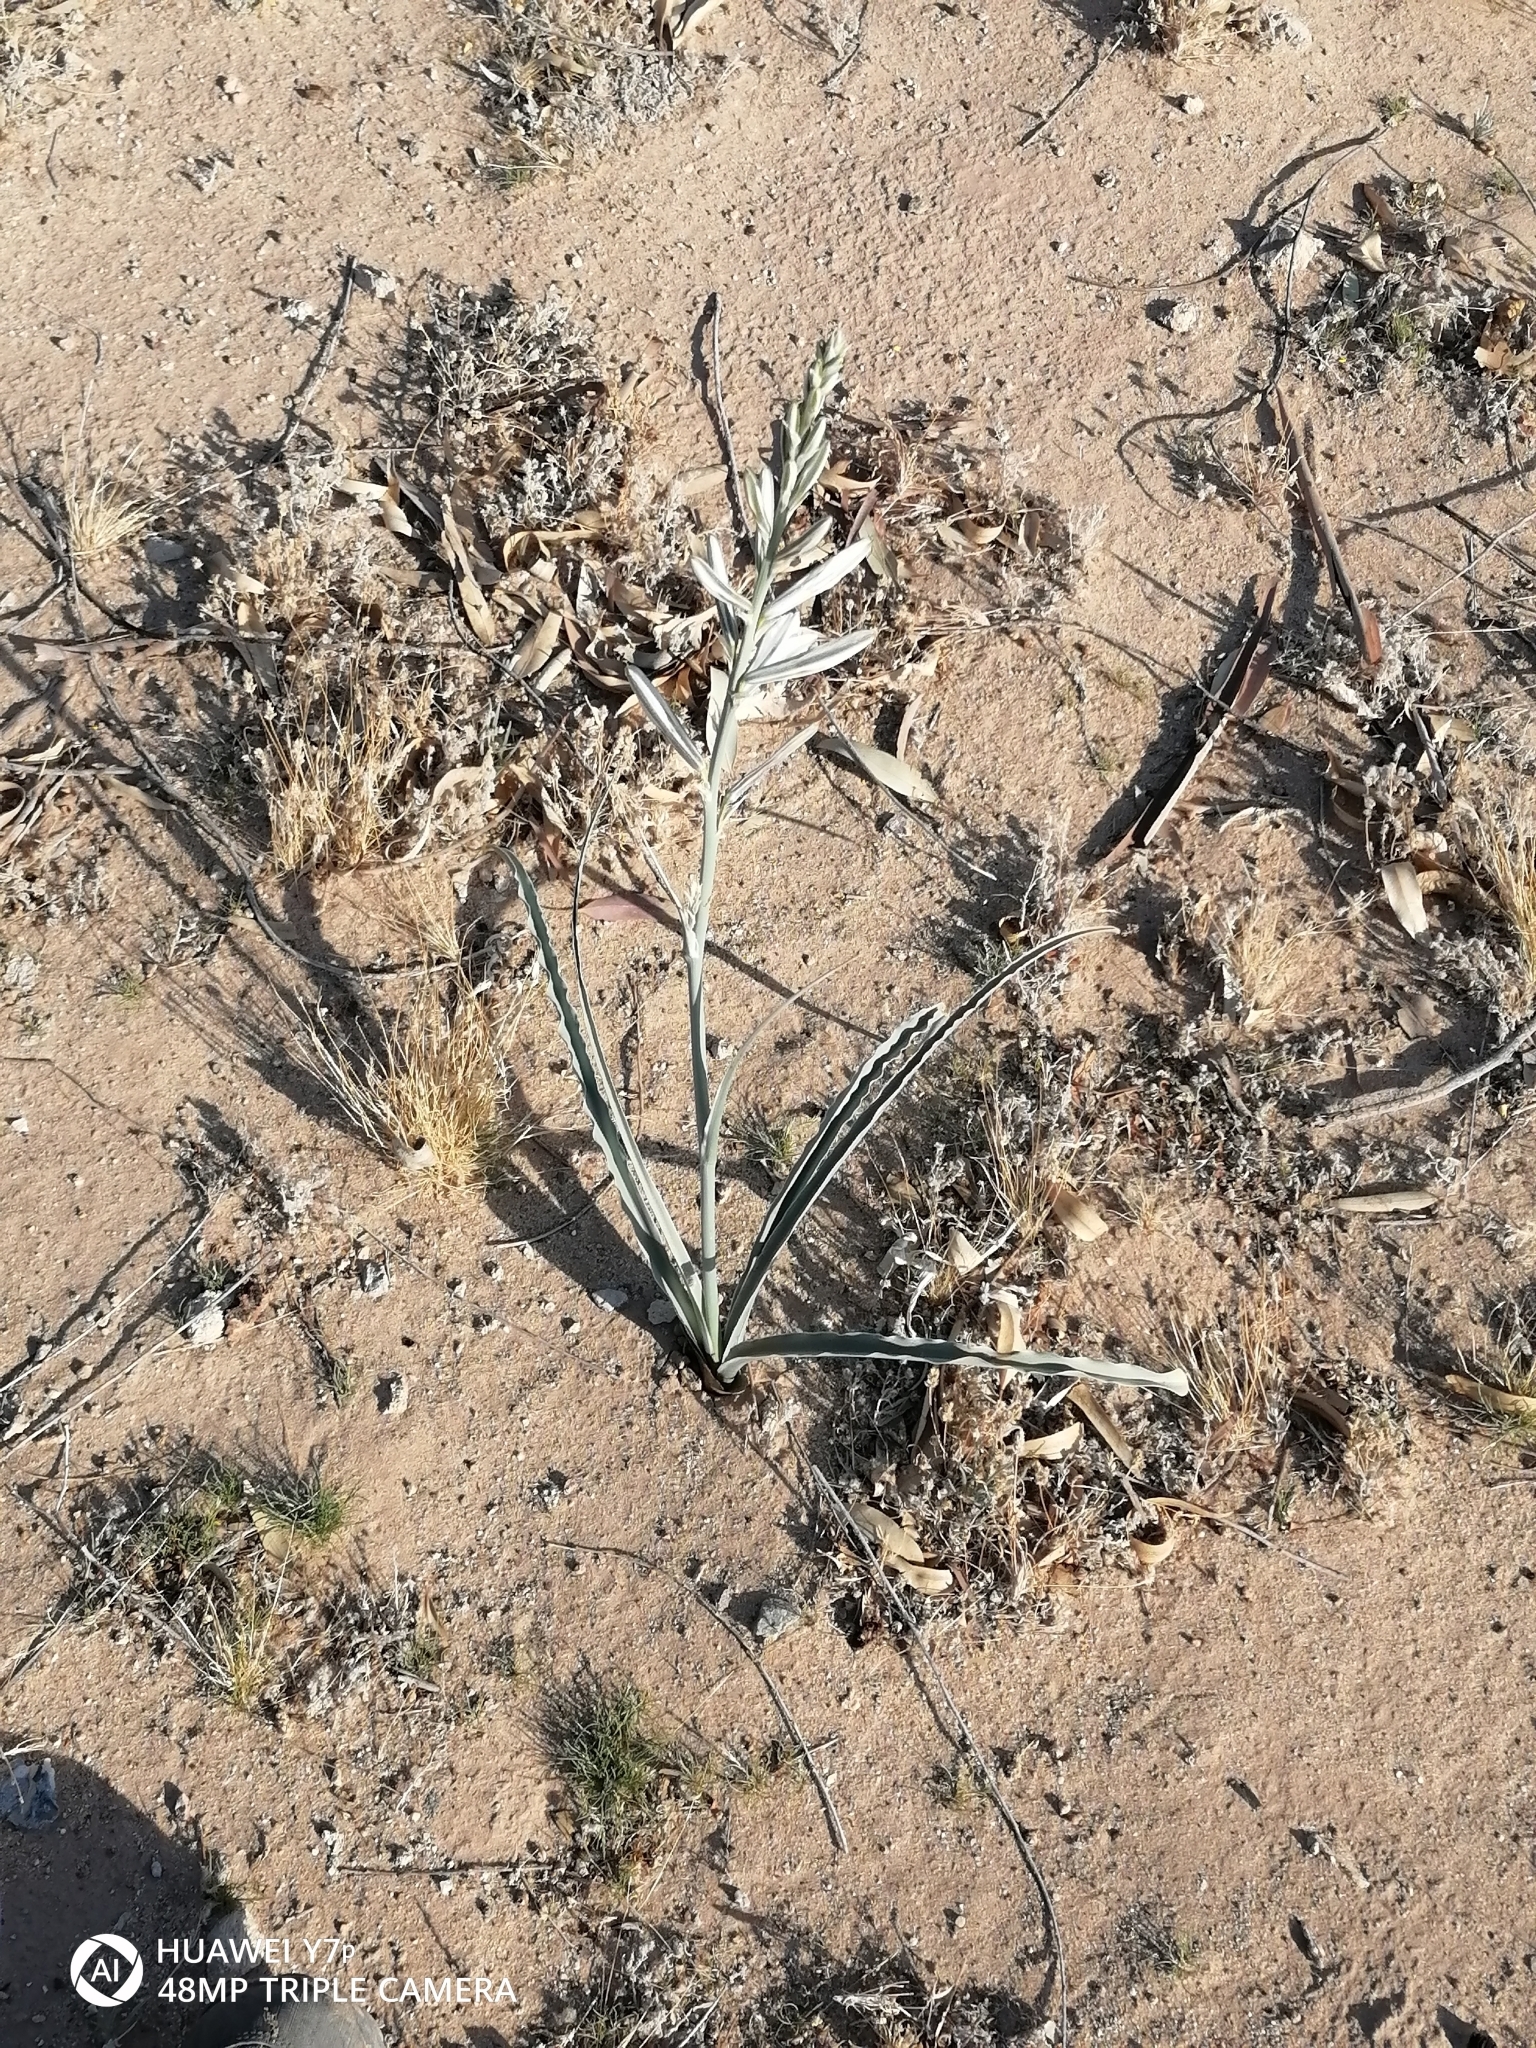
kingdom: Plantae
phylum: Tracheophyta
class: Liliopsida
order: Asparagales
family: Asparagaceae
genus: Hesperocallis
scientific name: Hesperocallis undulata
